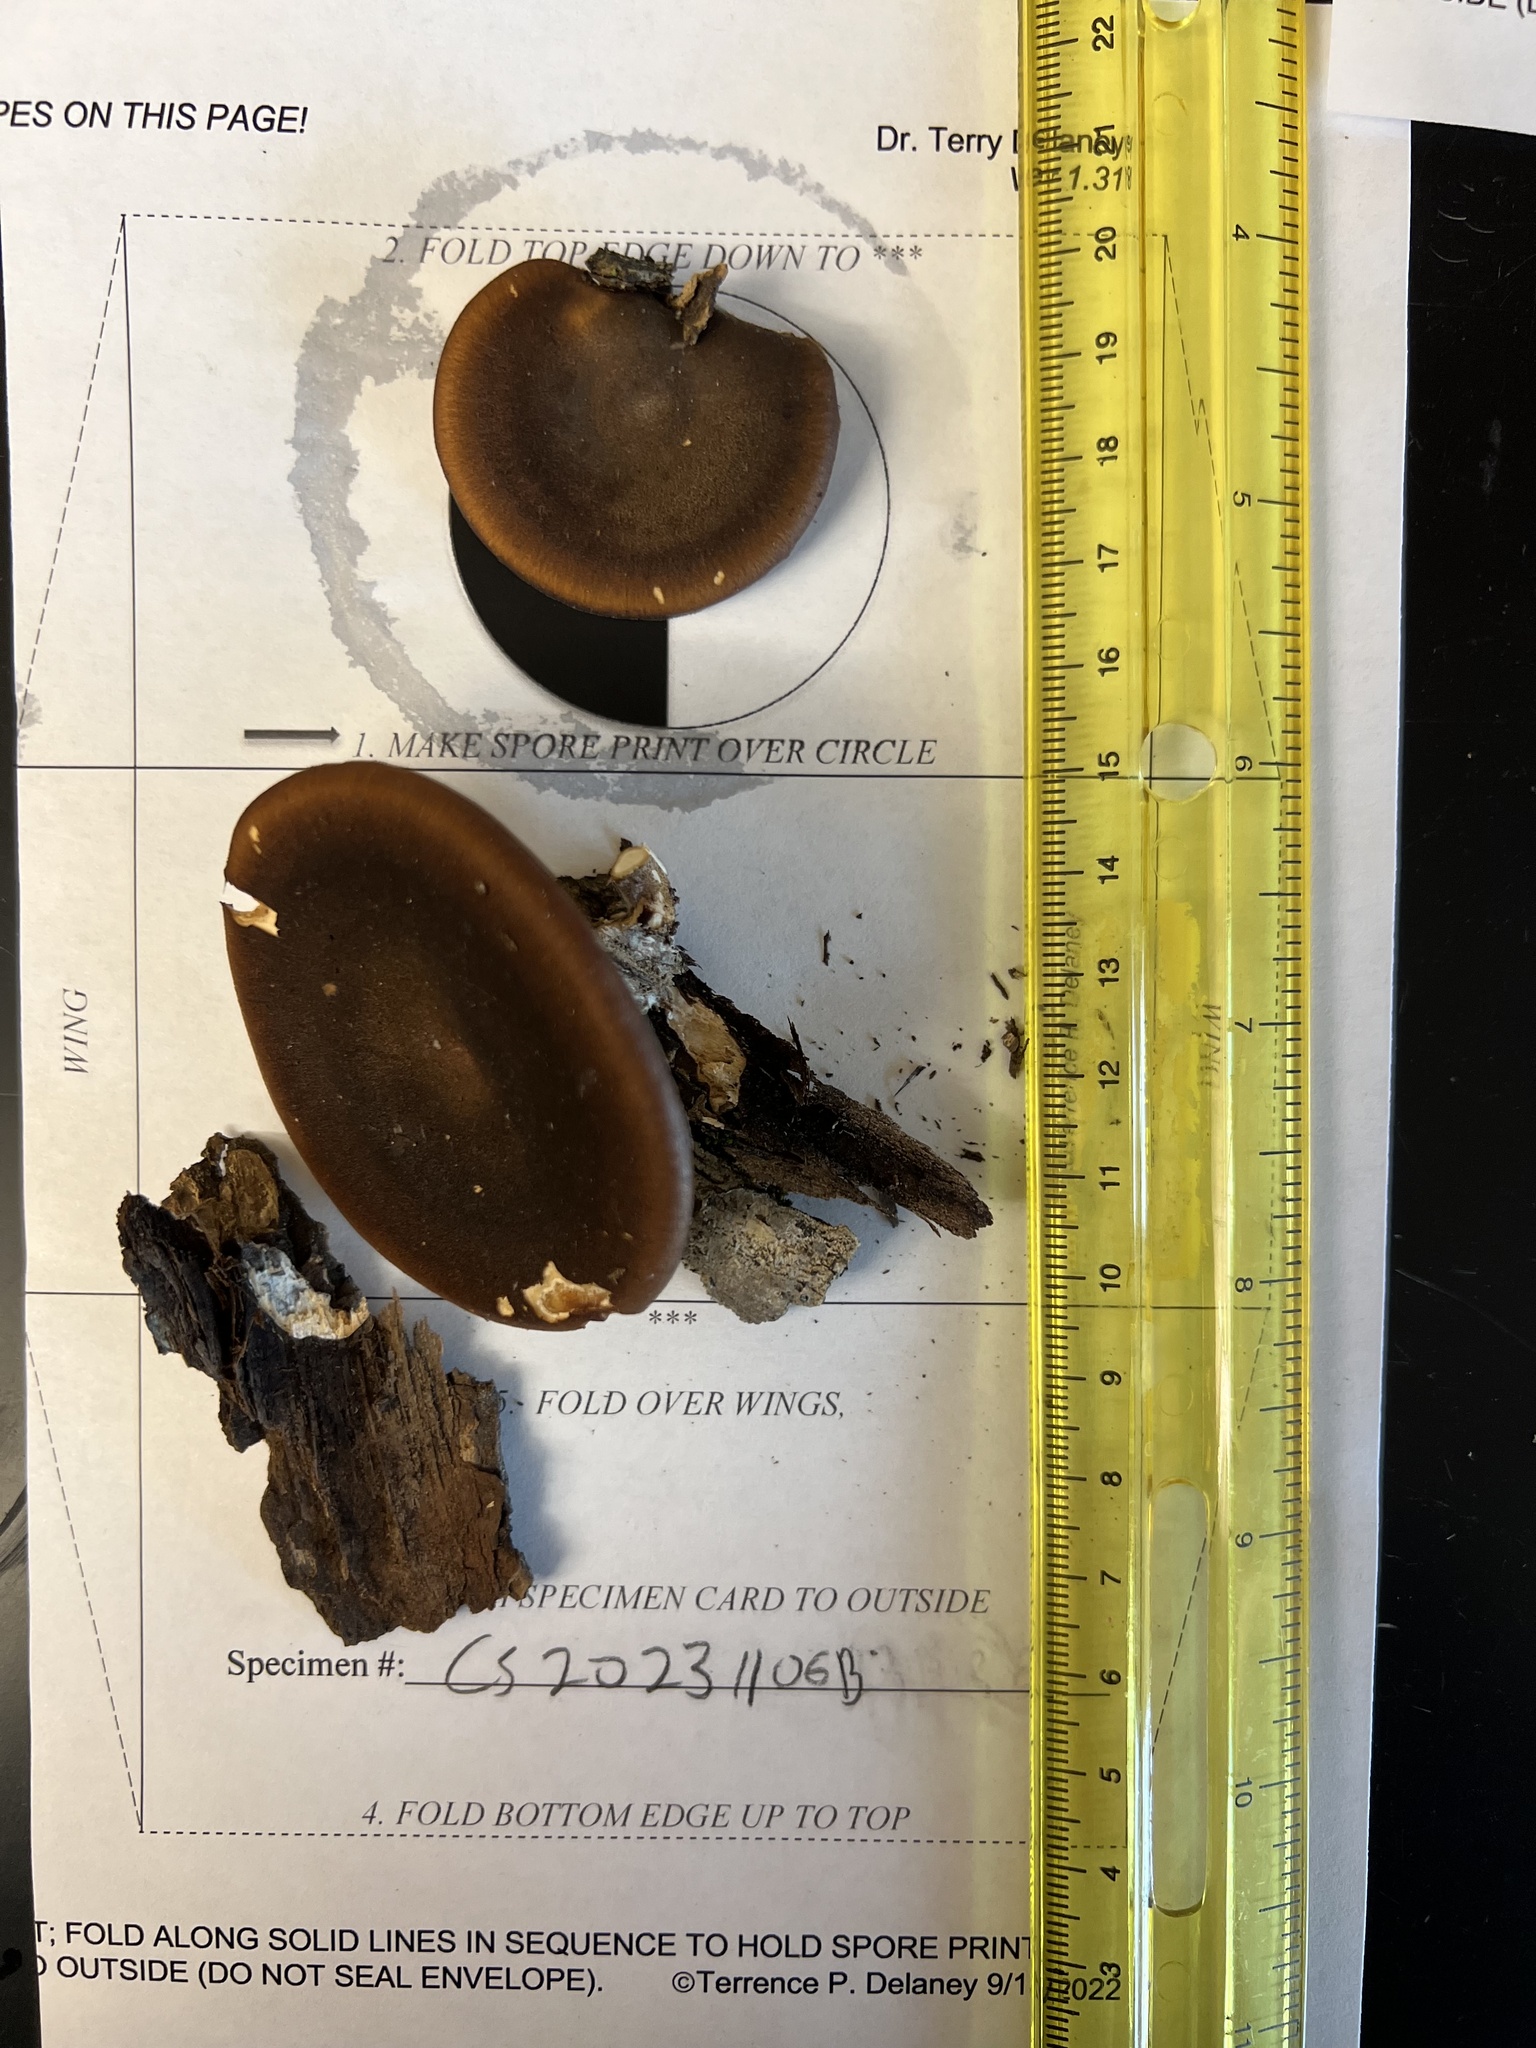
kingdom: Fungi
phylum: Basidiomycota
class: Agaricomycetes
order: Polyporales
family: Polyporaceae
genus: Lentinus
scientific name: Lentinus brumalis
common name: Winter polypore
